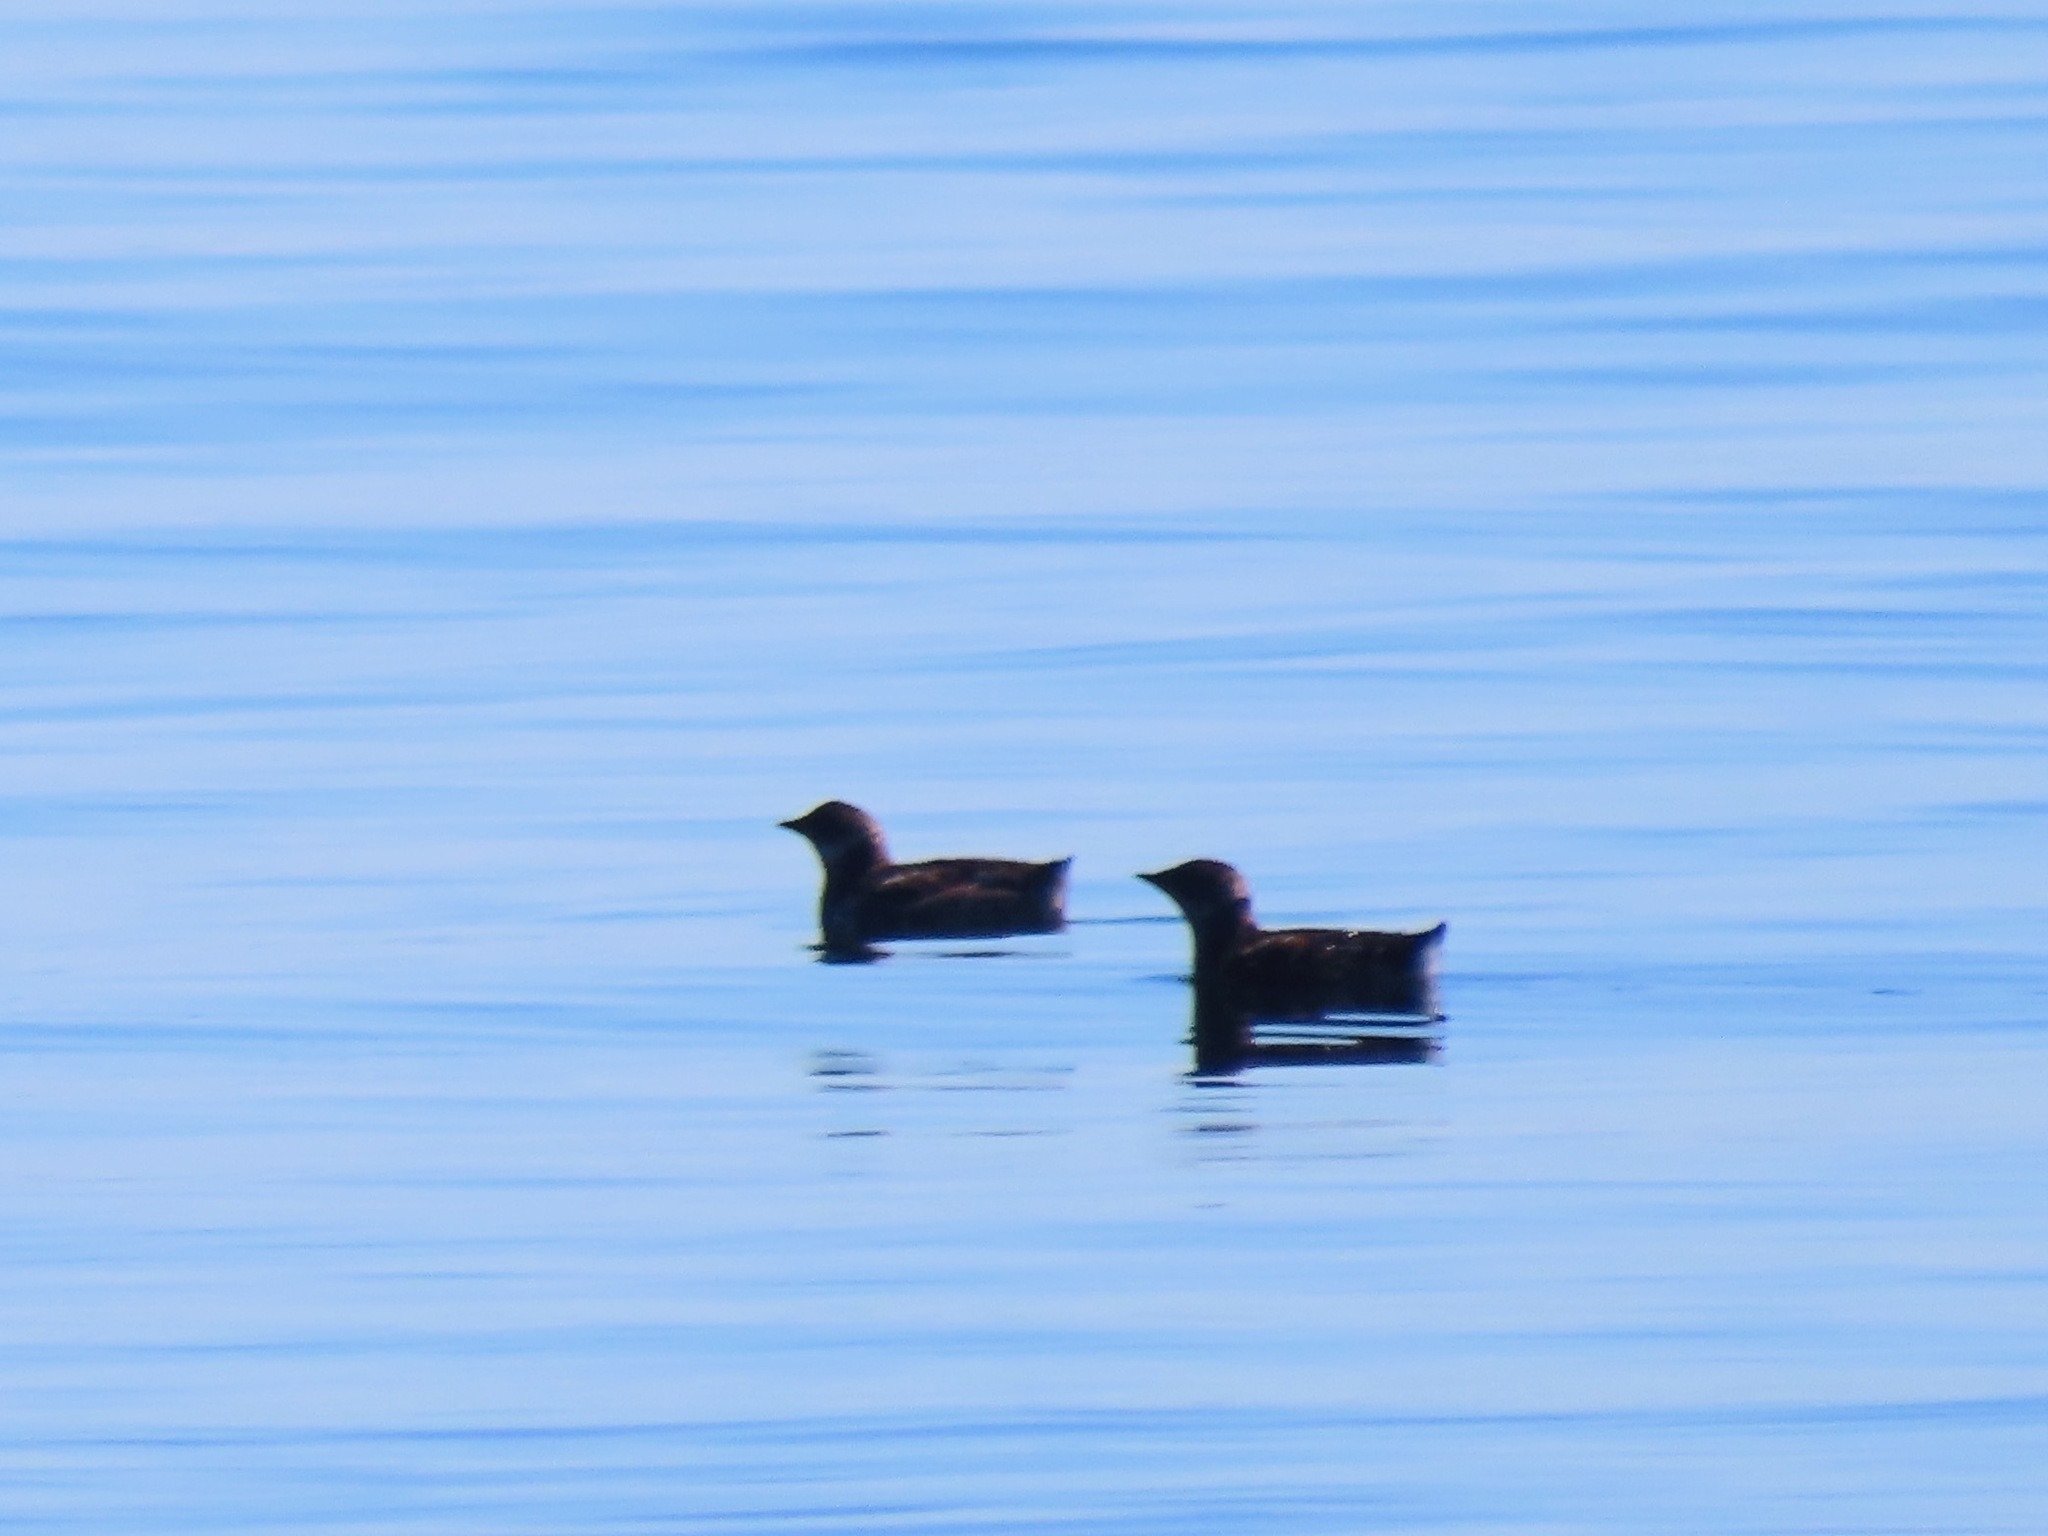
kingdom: Animalia
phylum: Chordata
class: Aves
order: Charadriiformes
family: Alcidae
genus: Brachyramphus
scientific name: Brachyramphus marmoratus
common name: Marbled murrelet
